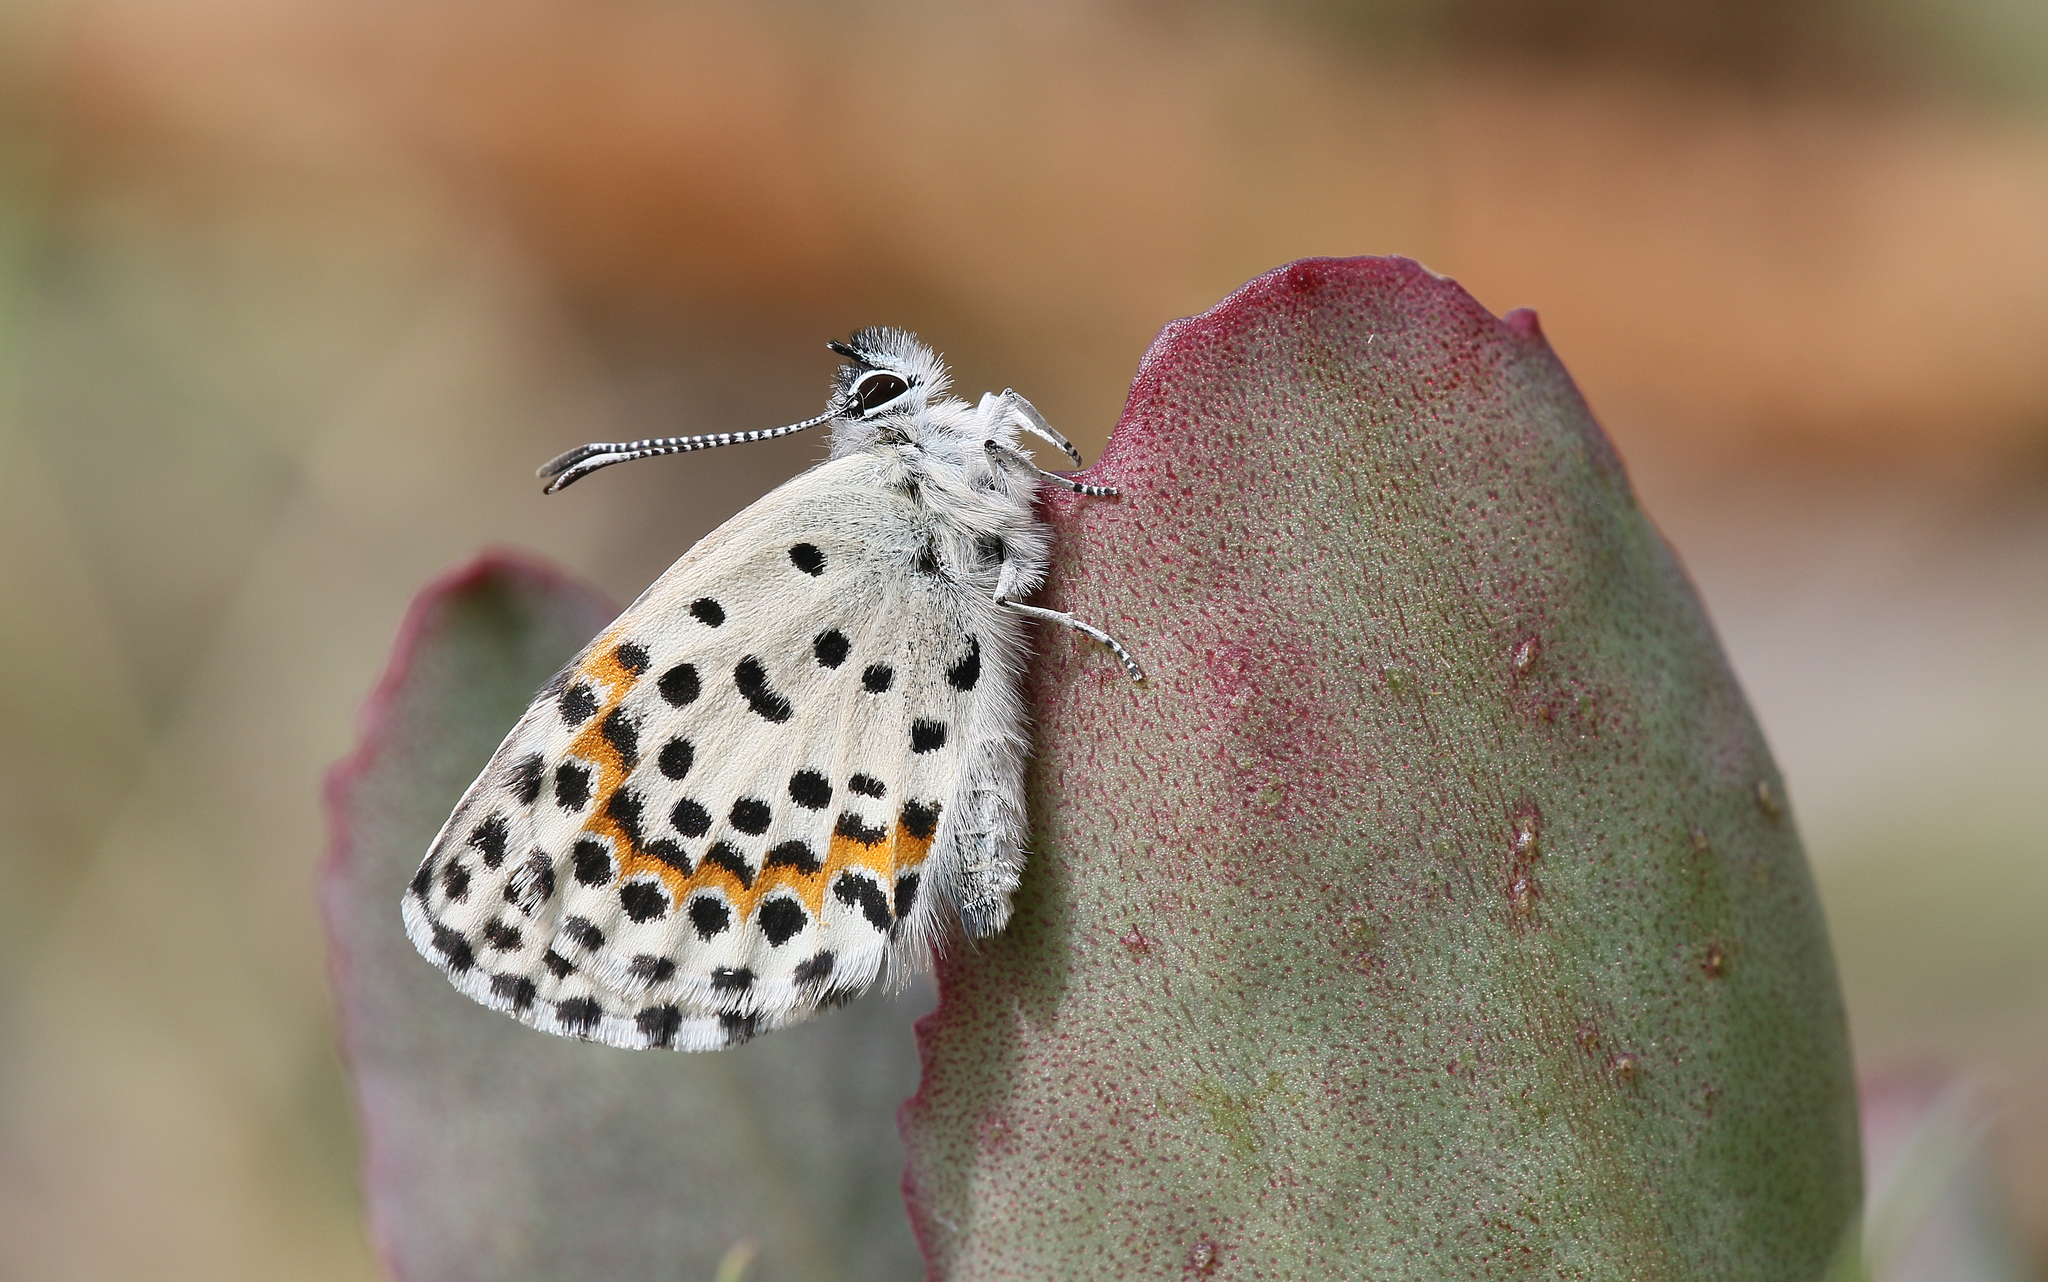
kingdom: Animalia
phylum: Arthropoda
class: Insecta
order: Lepidoptera
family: Lycaenidae
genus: Scolitantides
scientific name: Scolitantides orion
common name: Chequered blue
